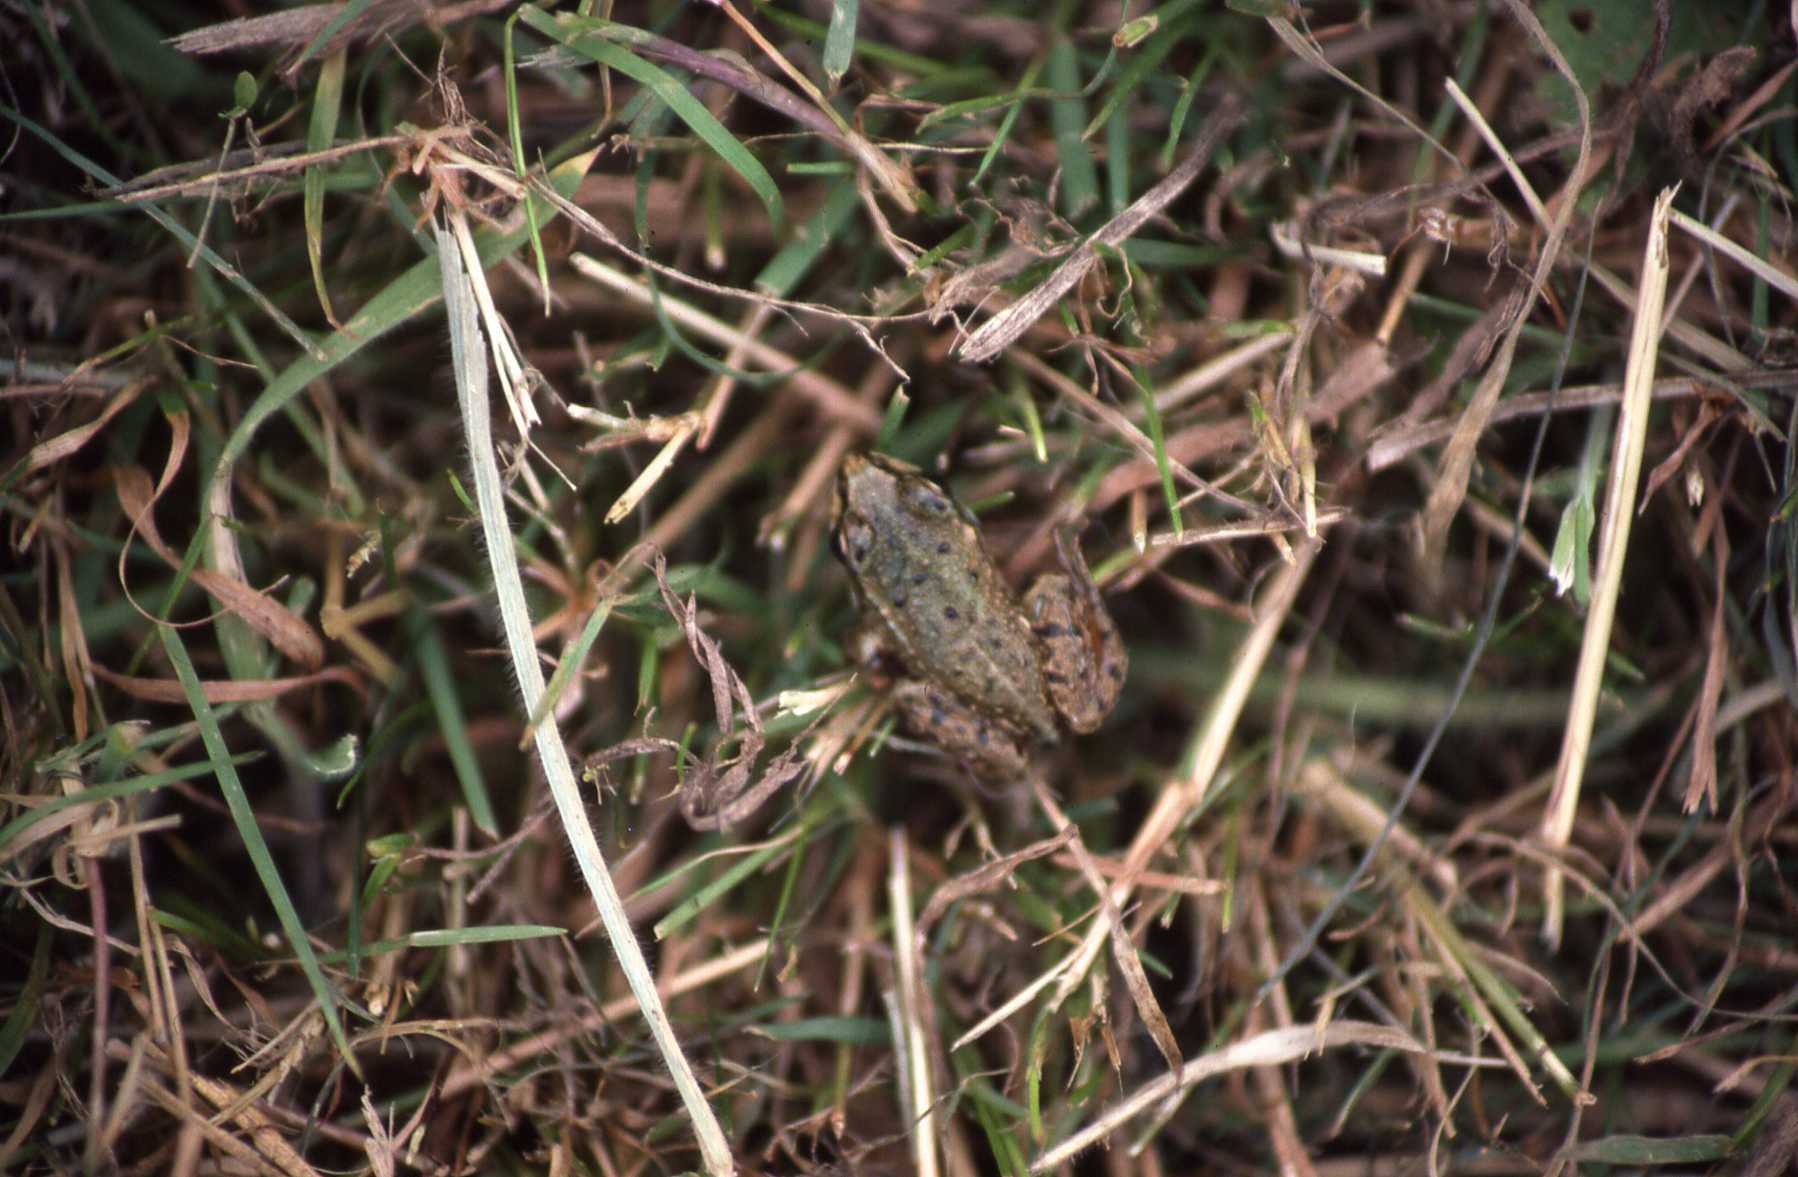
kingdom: Animalia
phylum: Chordata
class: Amphibia
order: Anura
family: Ranidae
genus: Rana
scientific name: Rana temporaria
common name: Common frog
